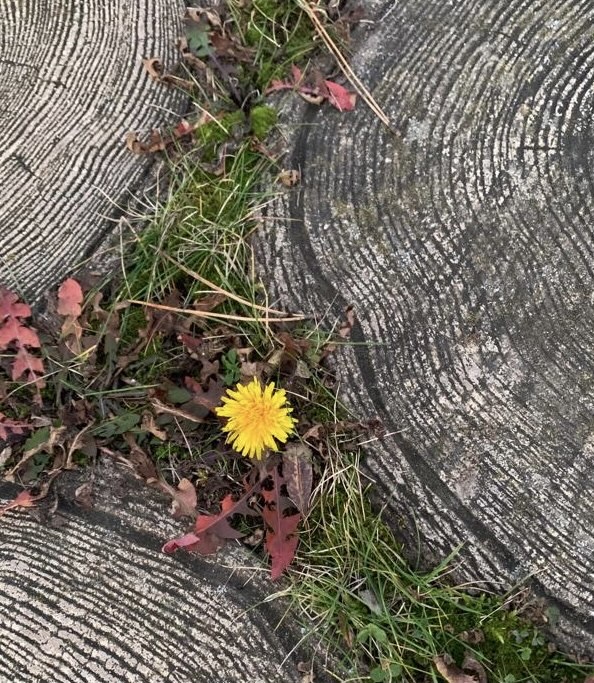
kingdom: Plantae
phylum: Tracheophyta
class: Magnoliopsida
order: Asterales
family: Asteraceae
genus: Taraxacum
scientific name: Taraxacum officinale
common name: Common dandelion
